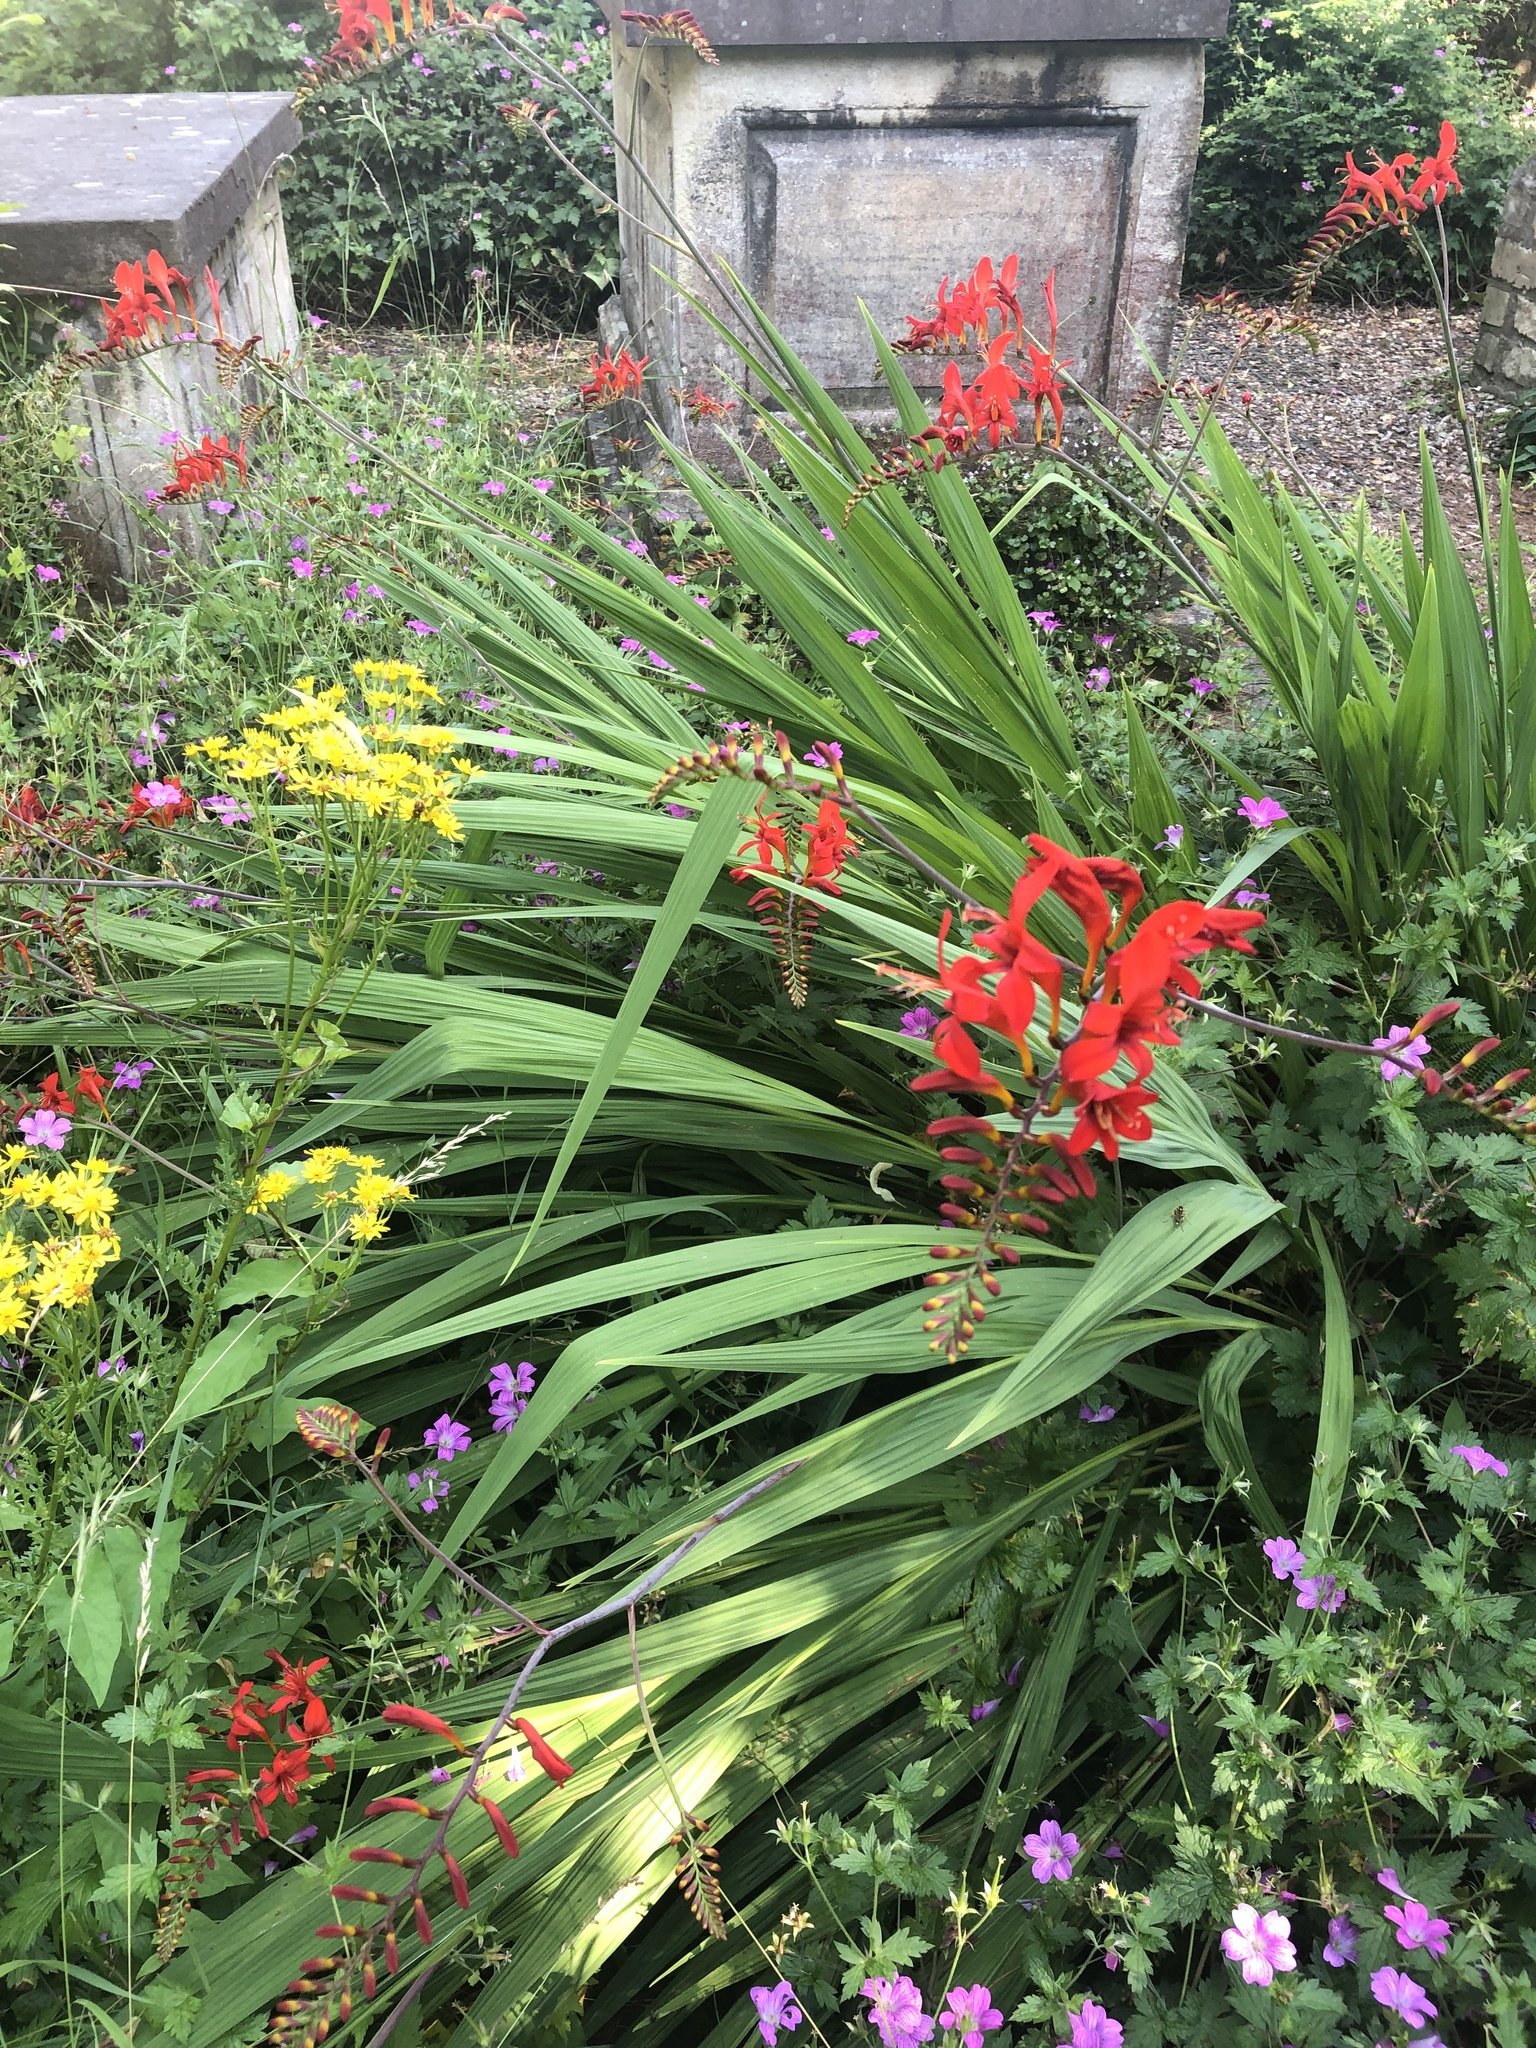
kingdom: Plantae
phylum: Tracheophyta
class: Liliopsida
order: Asparagales
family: Iridaceae
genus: Crocosmia
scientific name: Crocosmia
